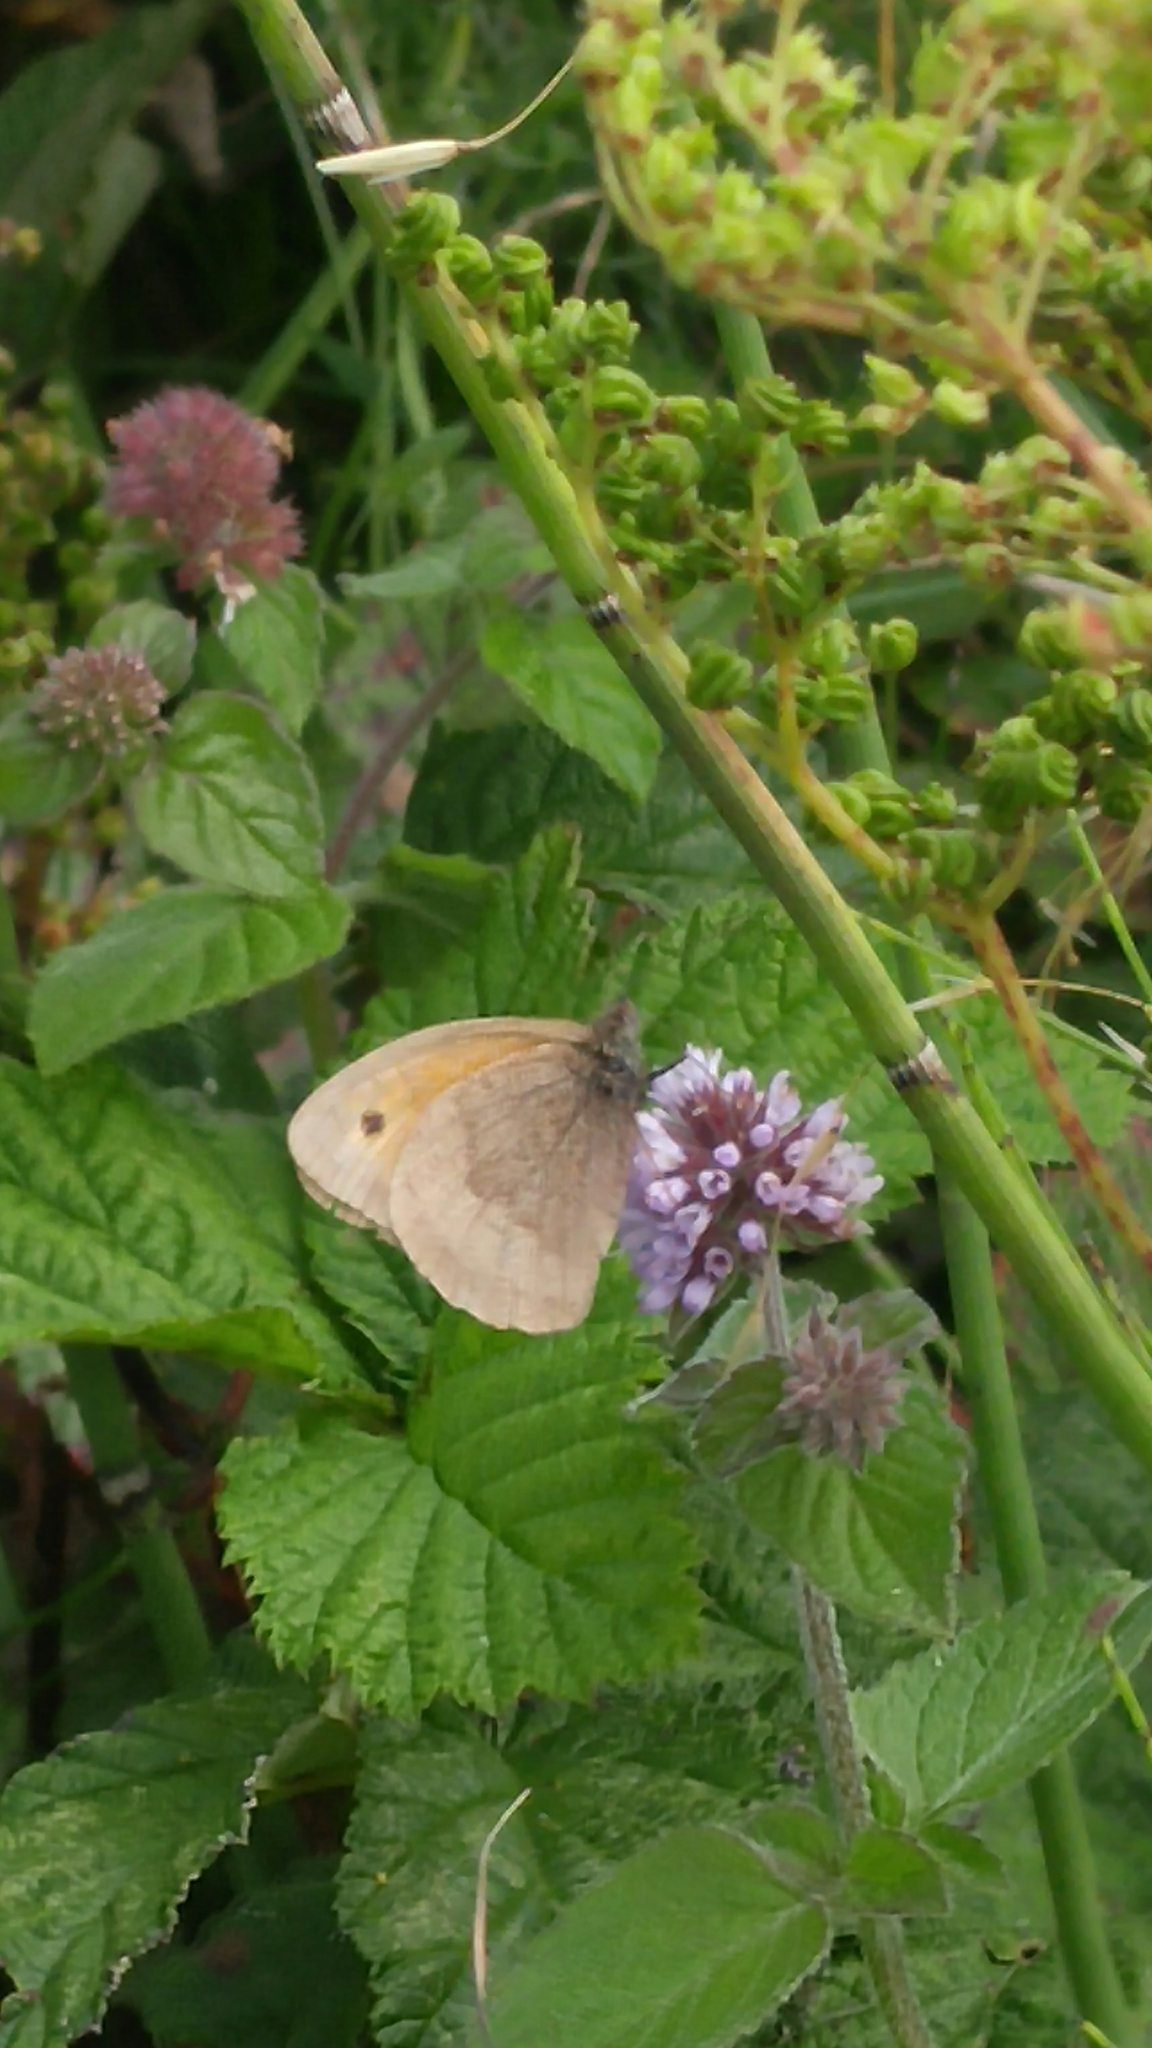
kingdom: Animalia
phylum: Arthropoda
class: Insecta
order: Lepidoptera
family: Nymphalidae
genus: Maniola
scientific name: Maniola jurtina
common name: Meadow brown
